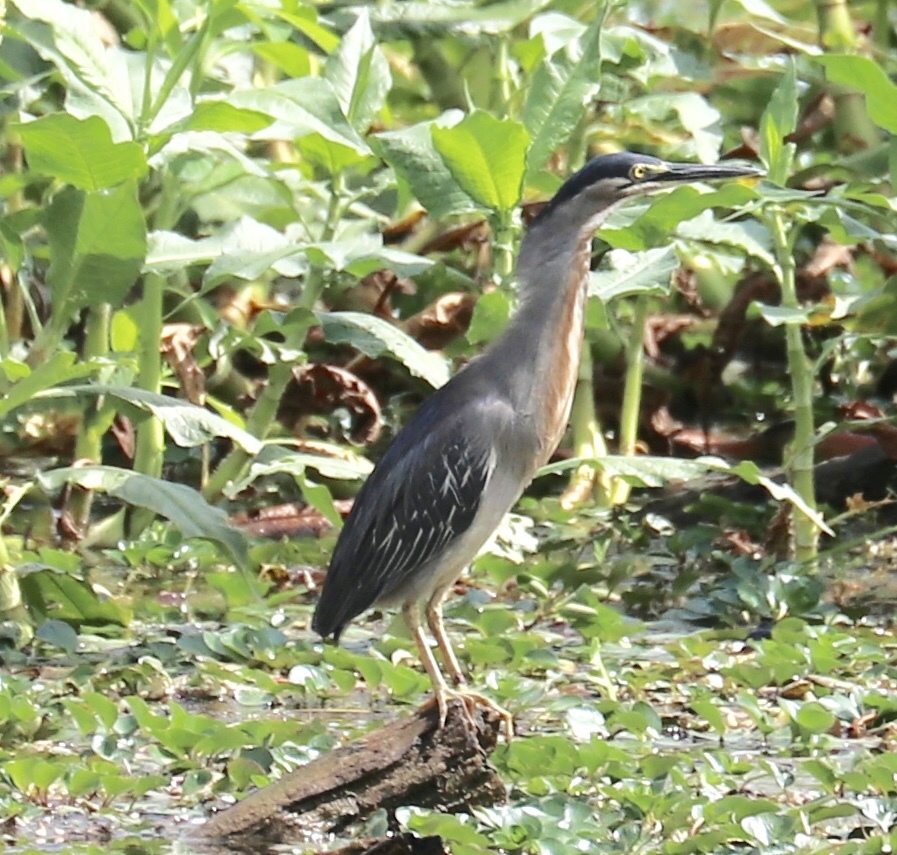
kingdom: Animalia
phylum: Chordata
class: Aves
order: Pelecaniformes
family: Ardeidae
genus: Butorides
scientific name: Butorides striata
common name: Striated heron
